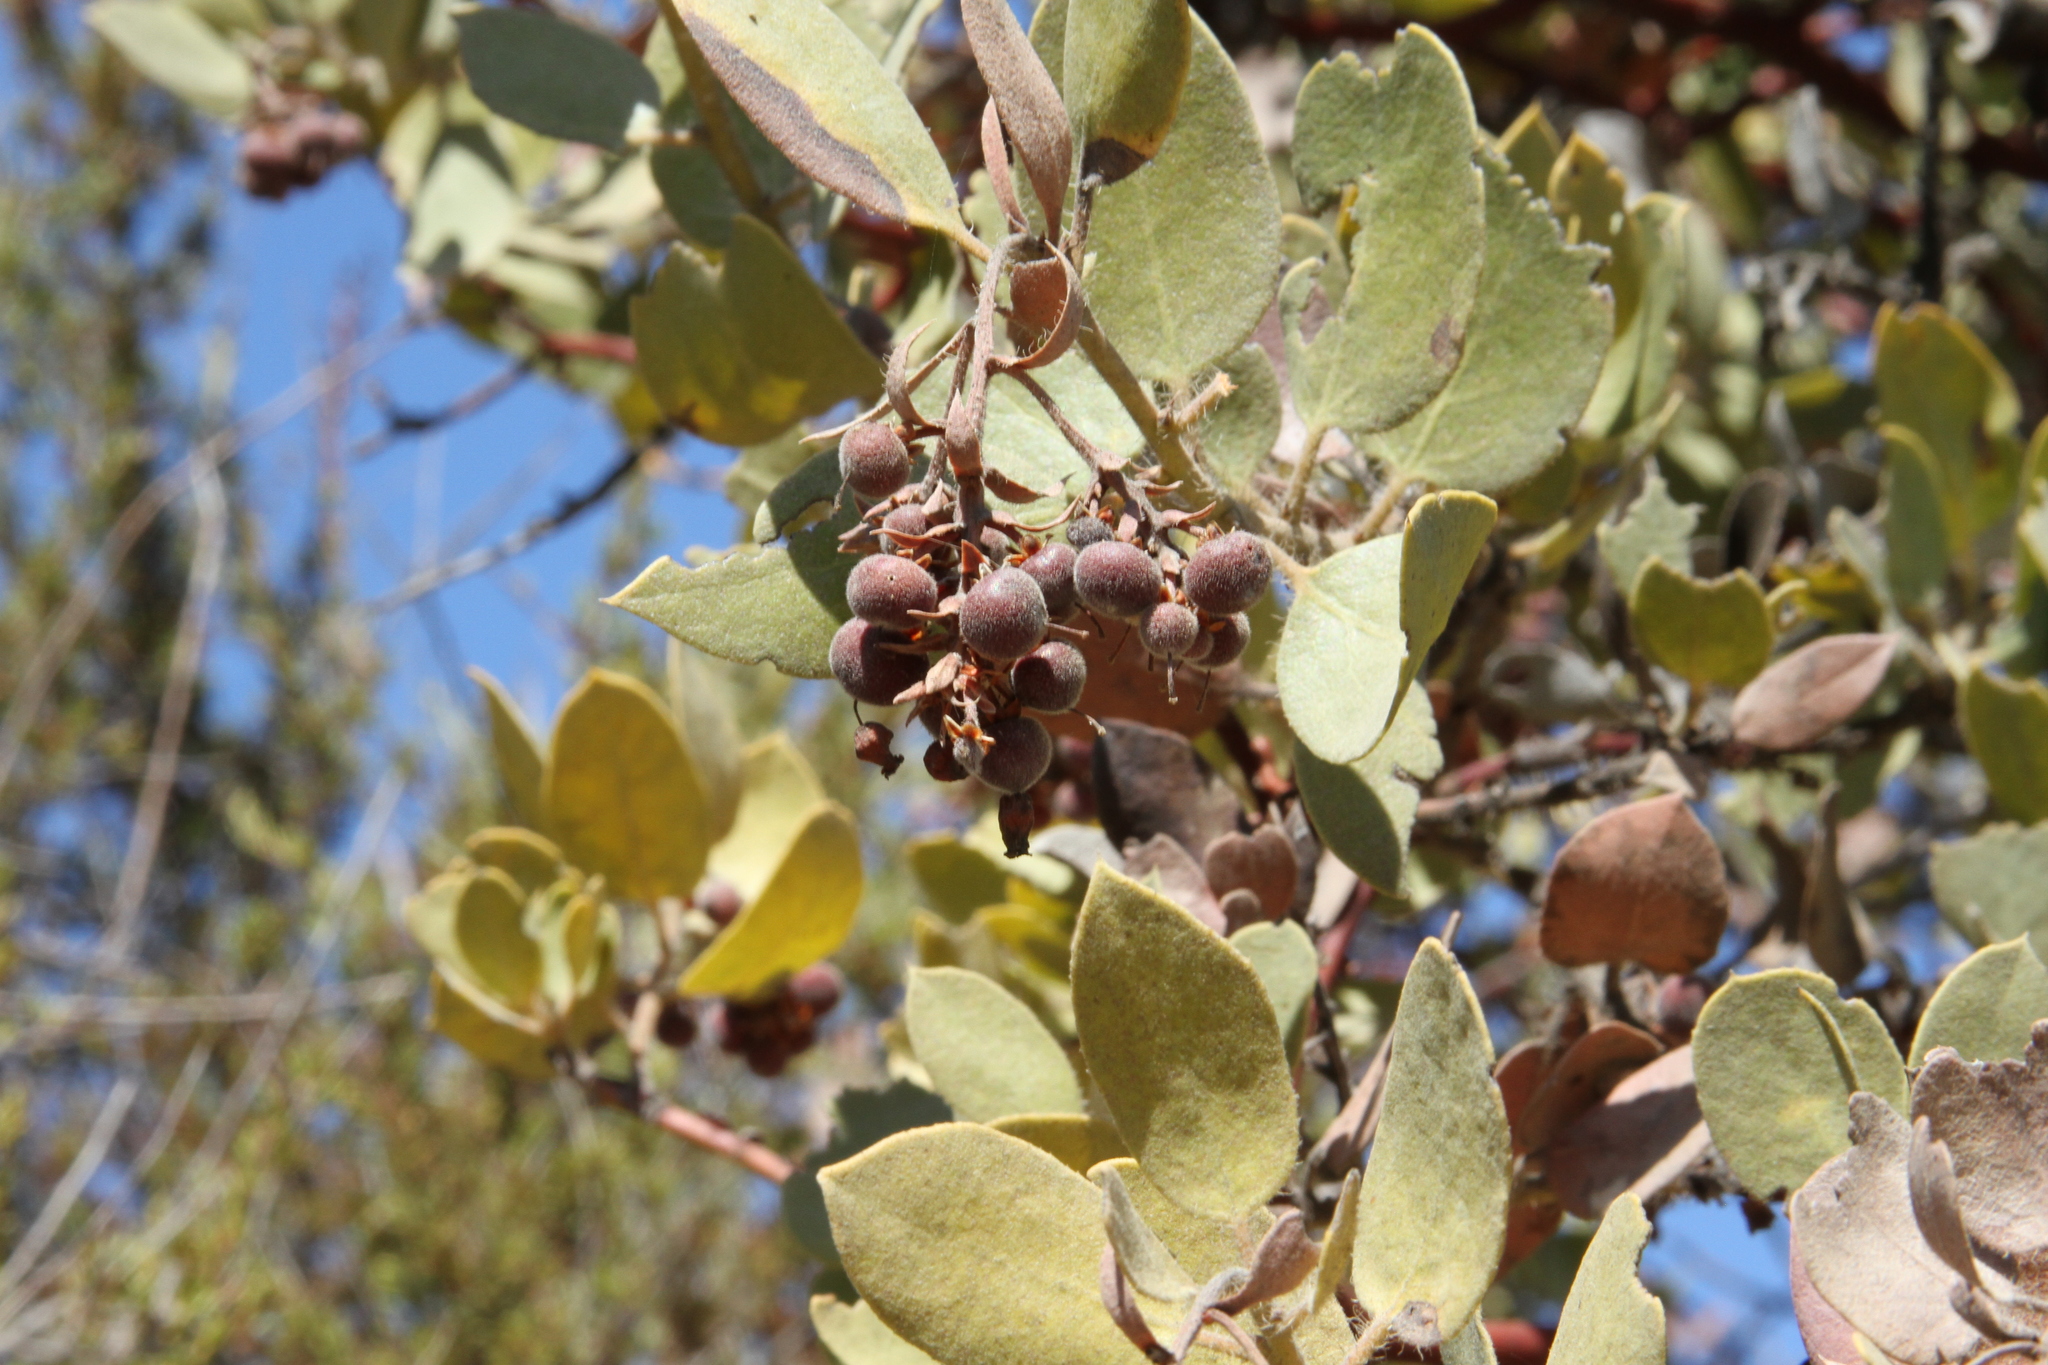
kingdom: Plantae
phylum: Tracheophyta
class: Magnoliopsida
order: Ericales
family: Ericaceae
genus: Arctostaphylos
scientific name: Arctostaphylos crustacea
